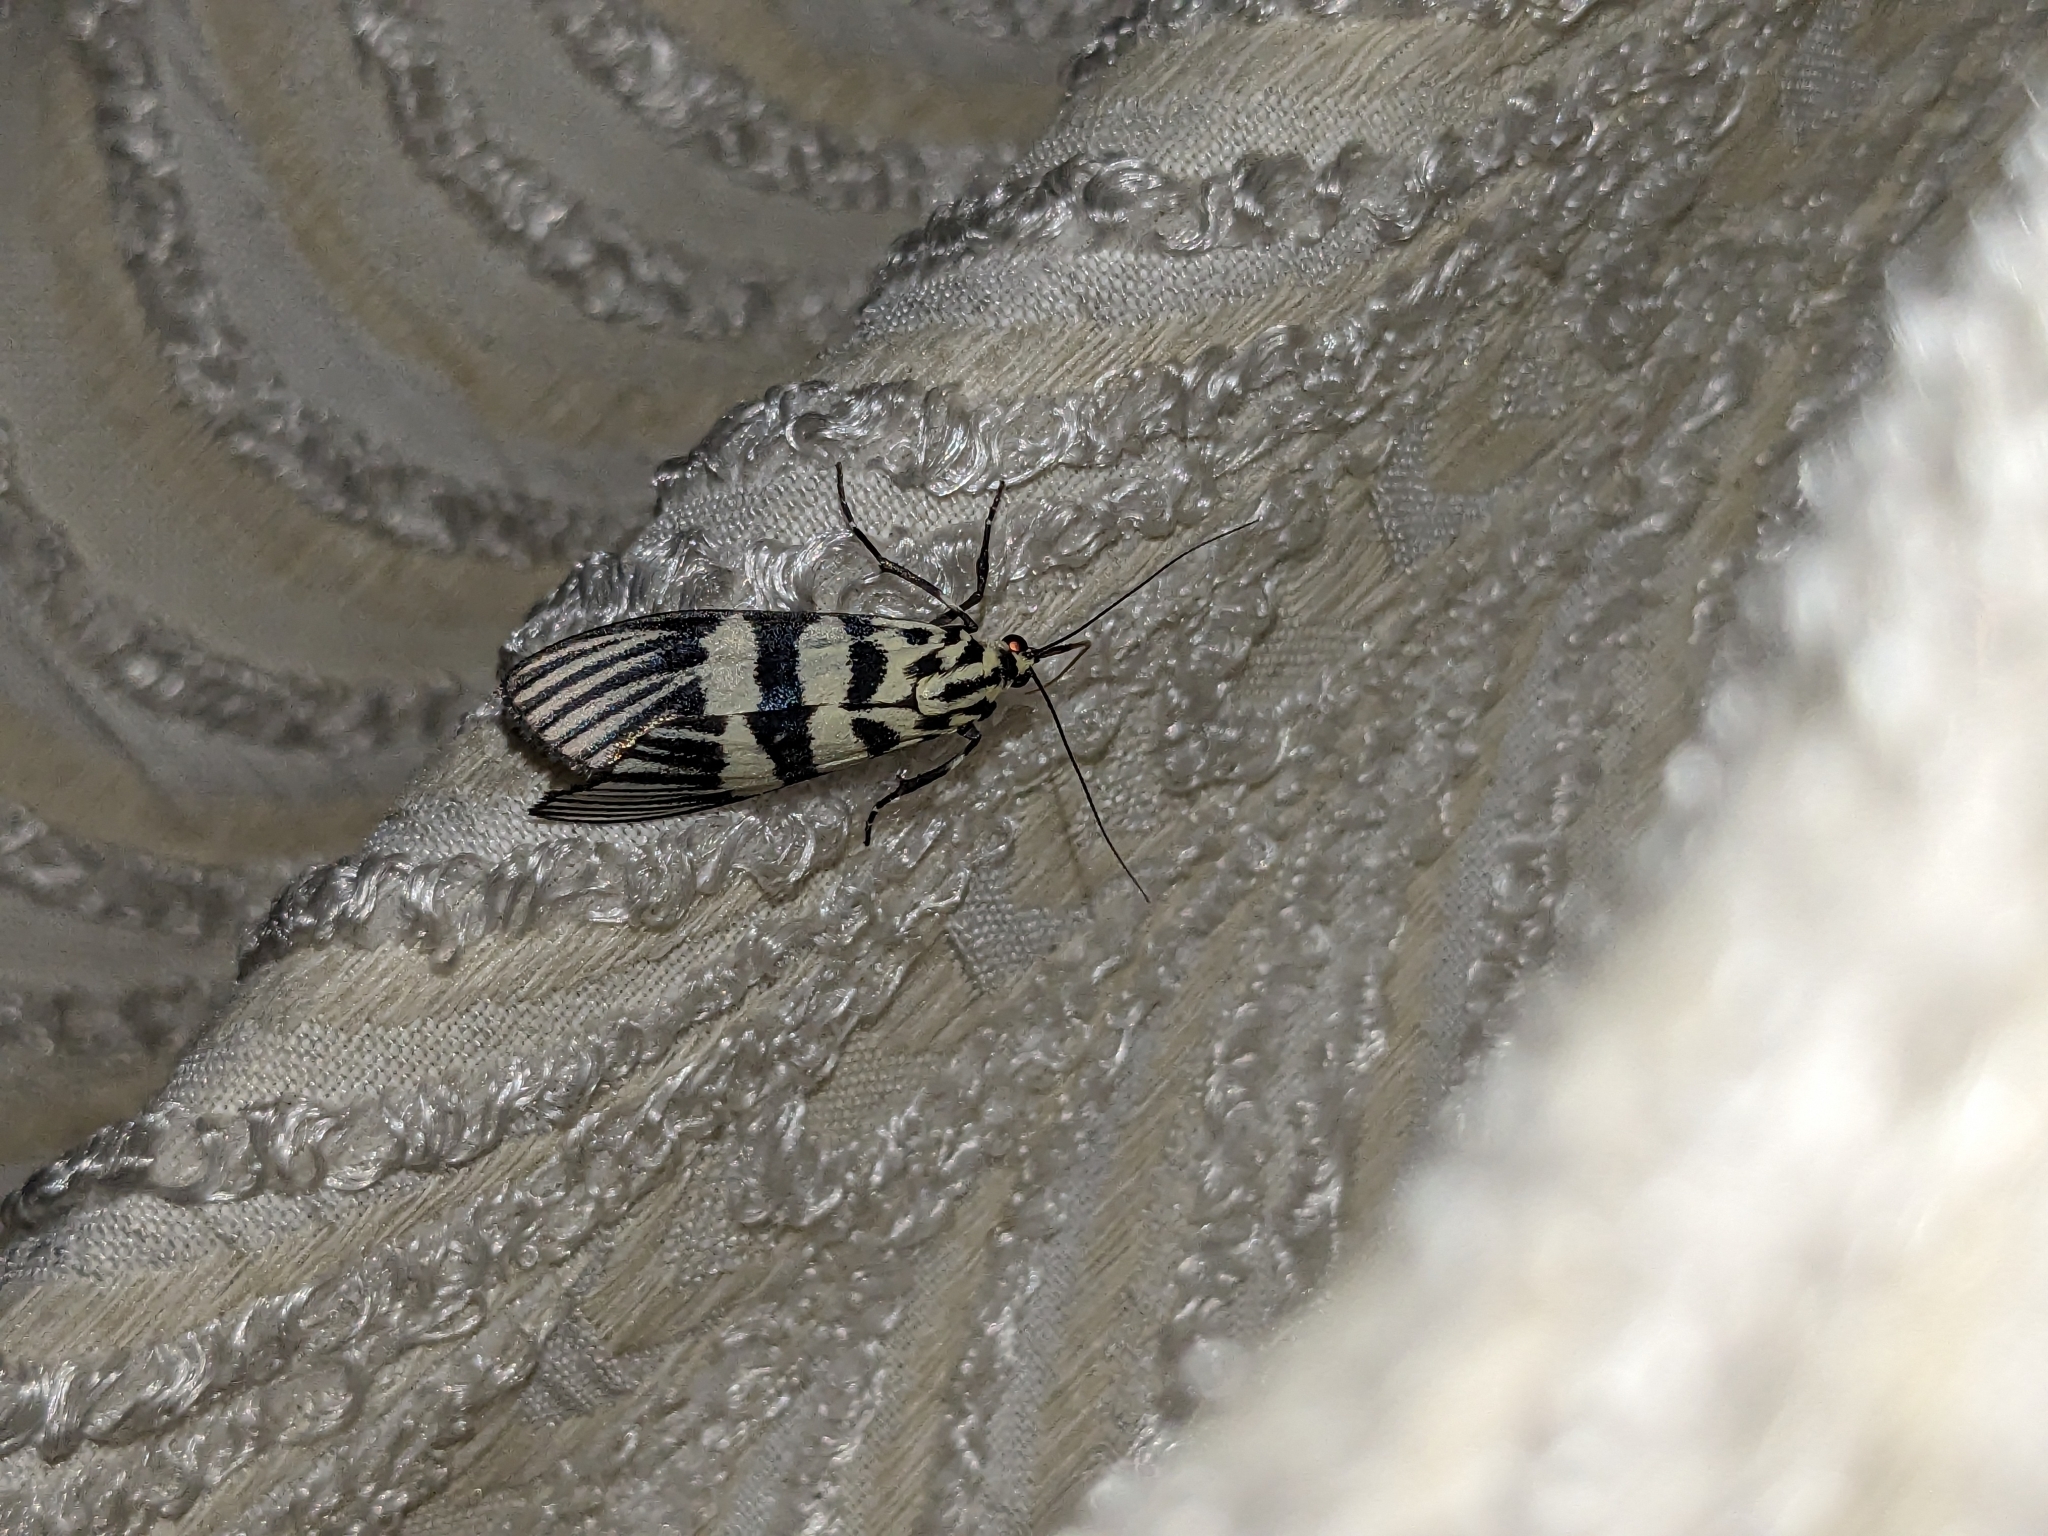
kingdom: Animalia
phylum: Arthropoda
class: Insecta
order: Lepidoptera
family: Crambidae
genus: Heortia
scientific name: Heortia vitessoides
